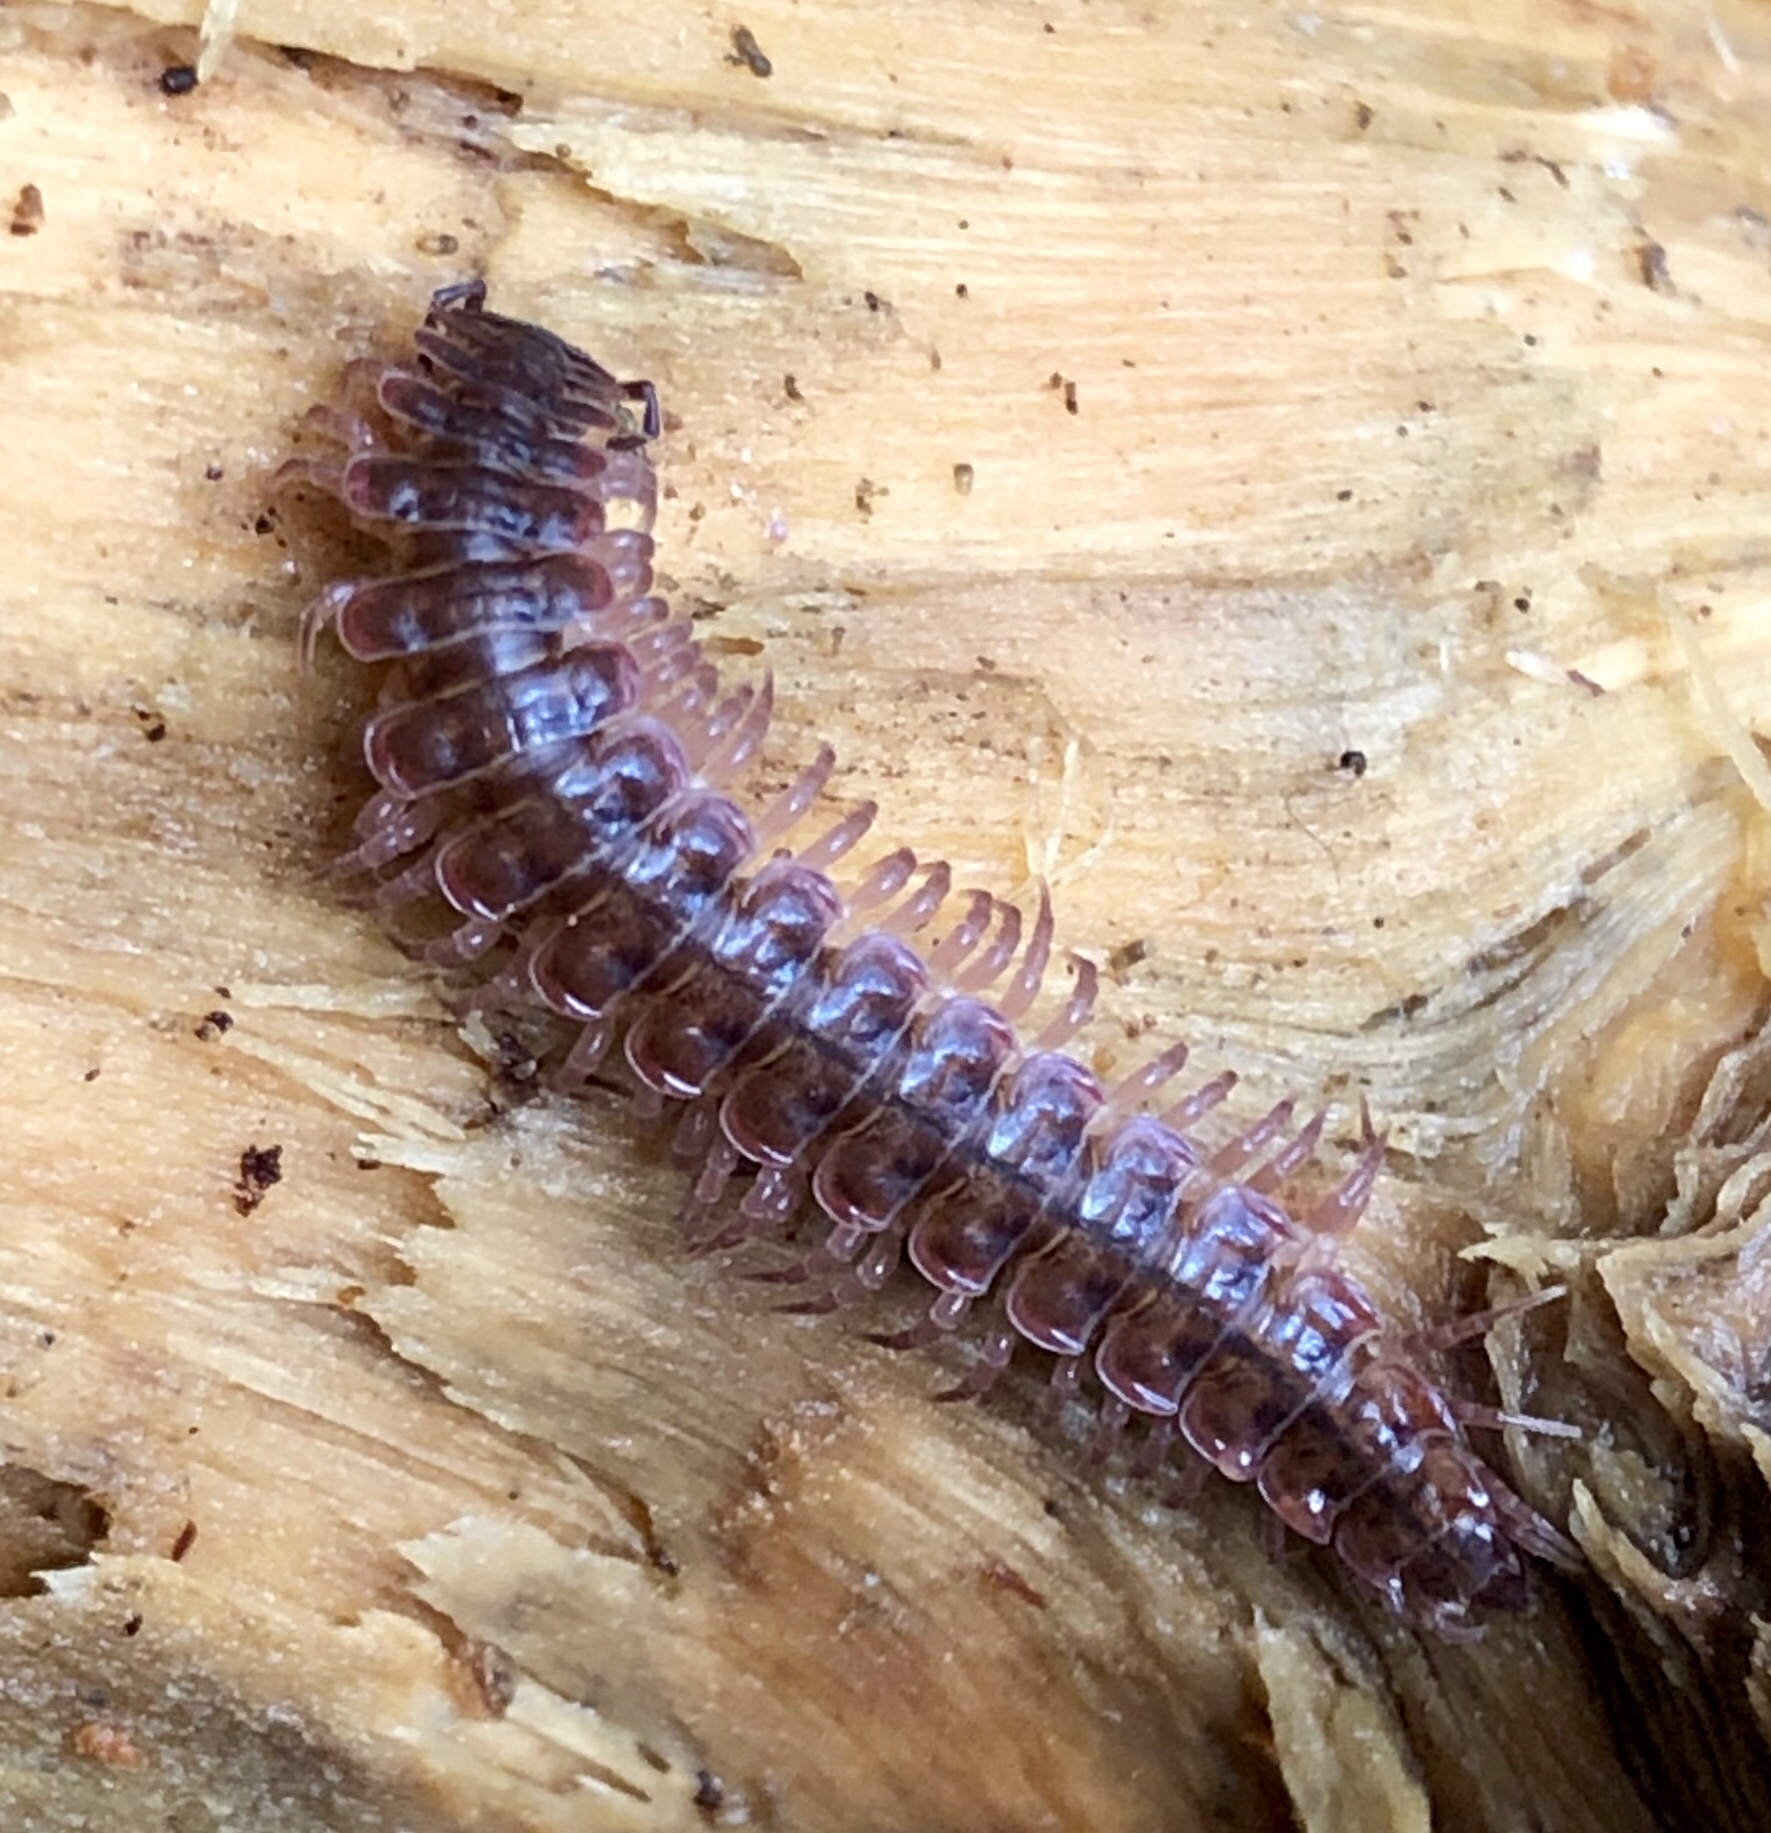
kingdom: Animalia
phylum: Arthropoda
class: Diplopoda
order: Polydesmida
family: Polydesmidae
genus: Pseudopolydesmus
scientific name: Pseudopolydesmus serratus
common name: Common pink flat-back millipede
